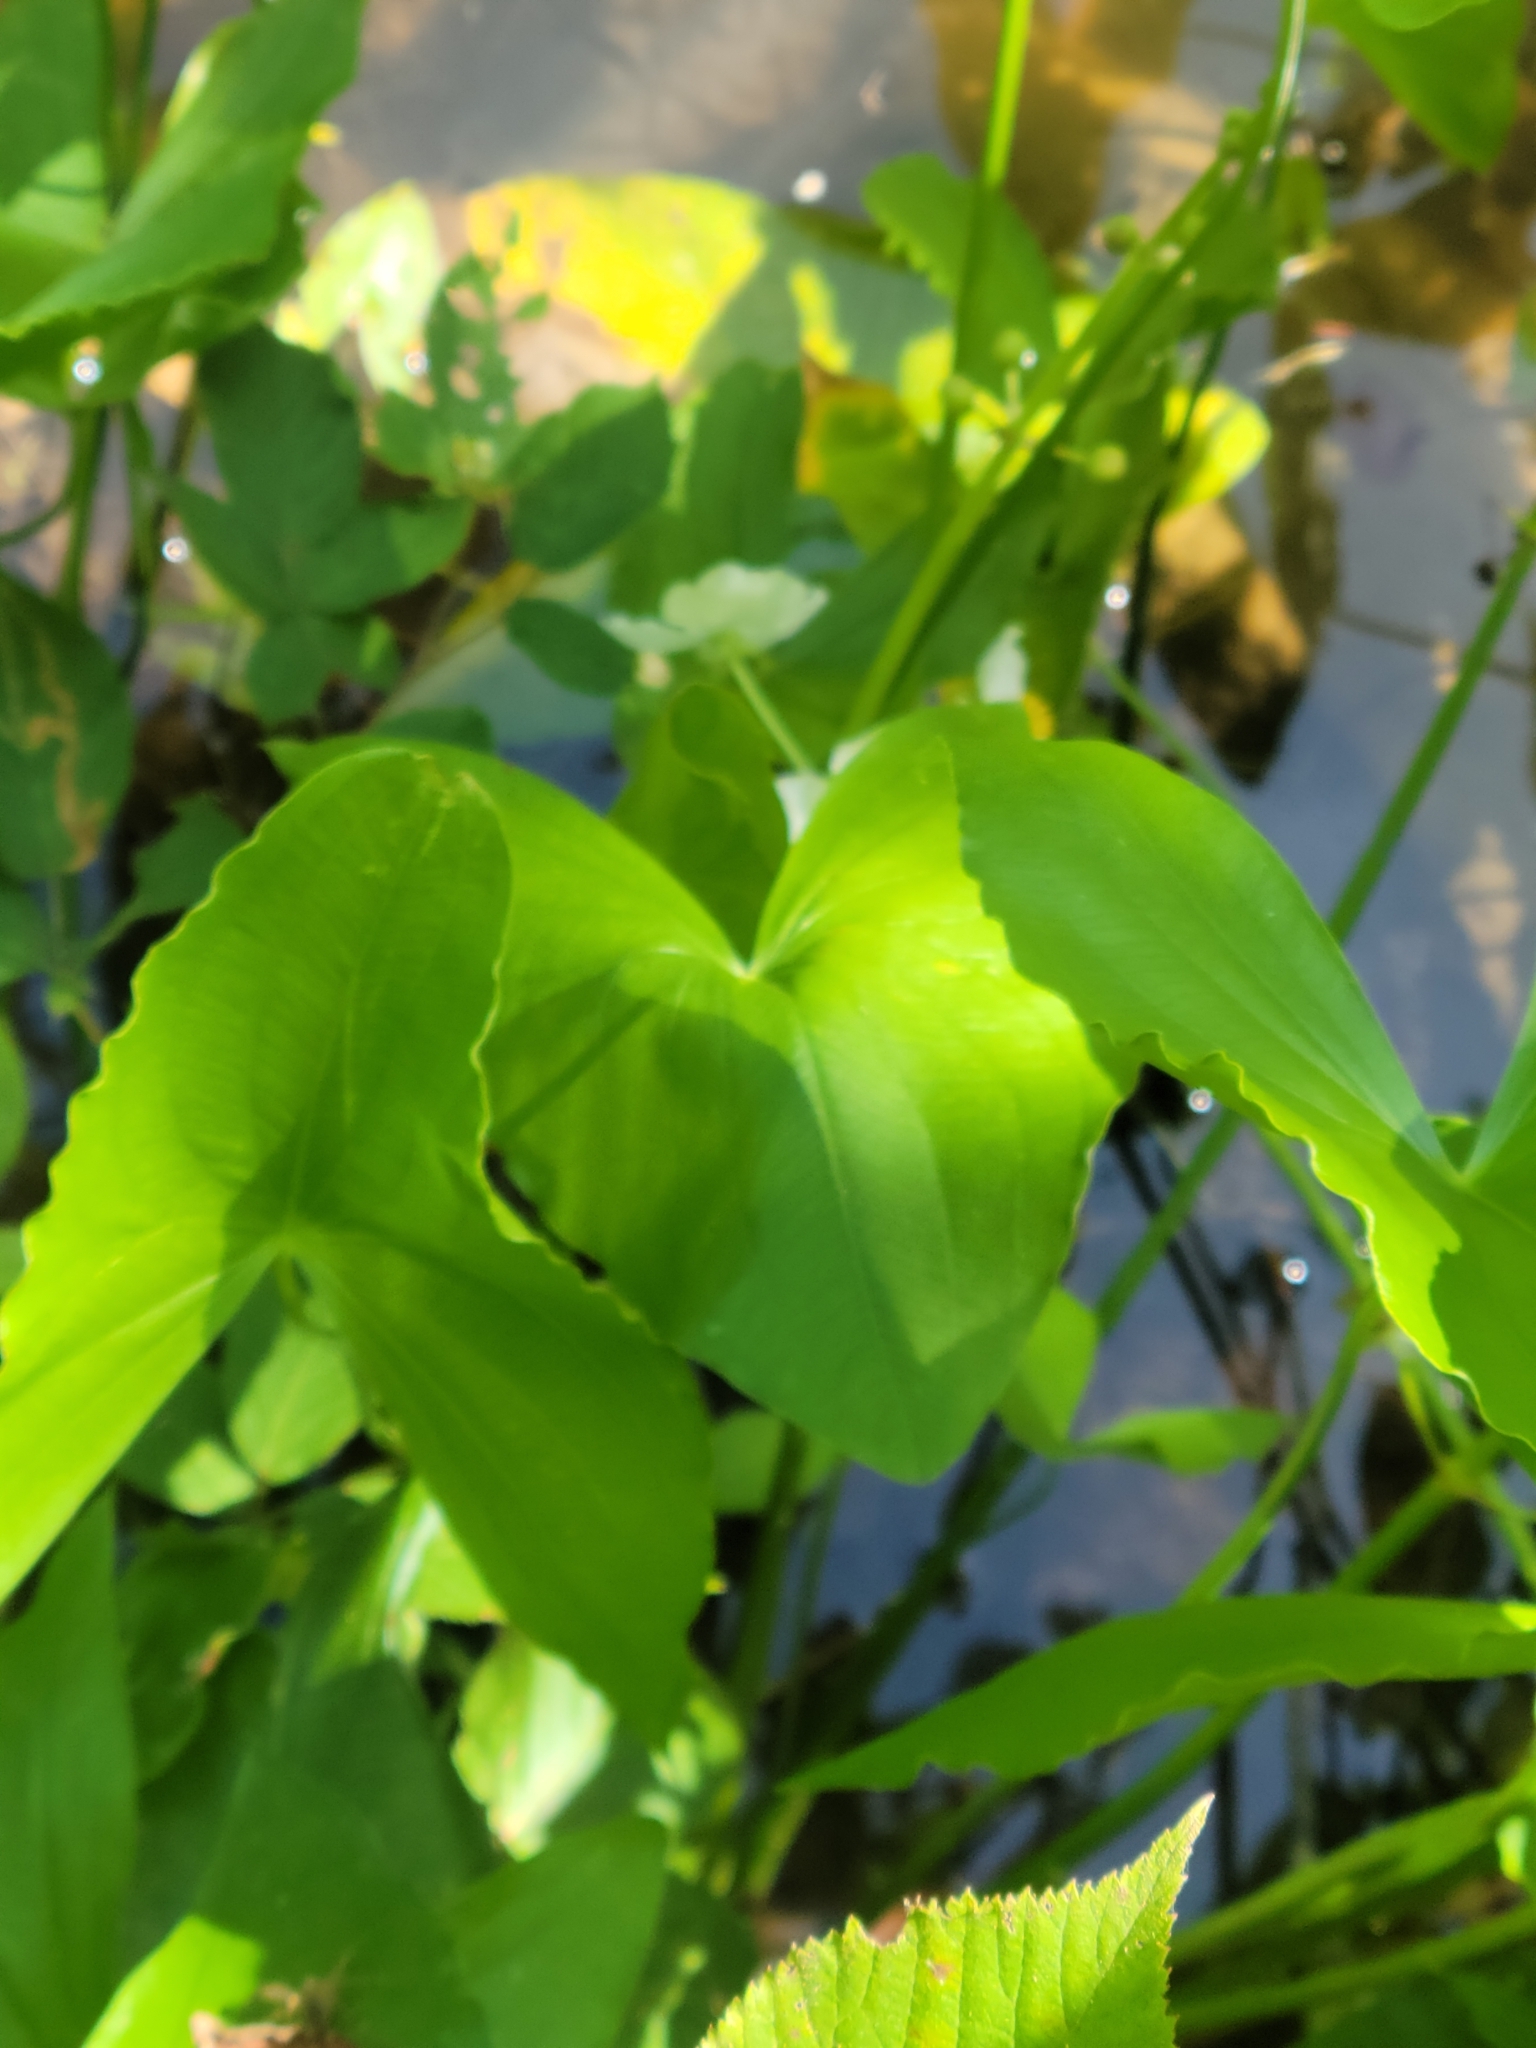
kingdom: Plantae
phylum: Tracheophyta
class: Liliopsida
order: Alismatales
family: Alismataceae
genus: Sagittaria
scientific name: Sagittaria latifolia
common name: Duck-potato
